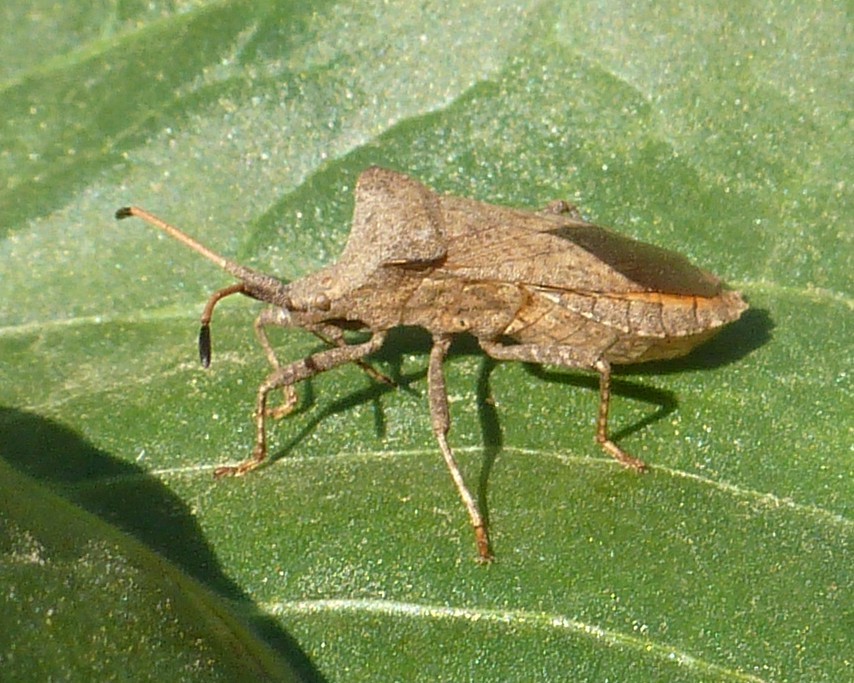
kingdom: Animalia
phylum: Arthropoda
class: Insecta
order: Hemiptera
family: Coreidae
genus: Coreus
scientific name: Coreus marginatus
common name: Dock bug
